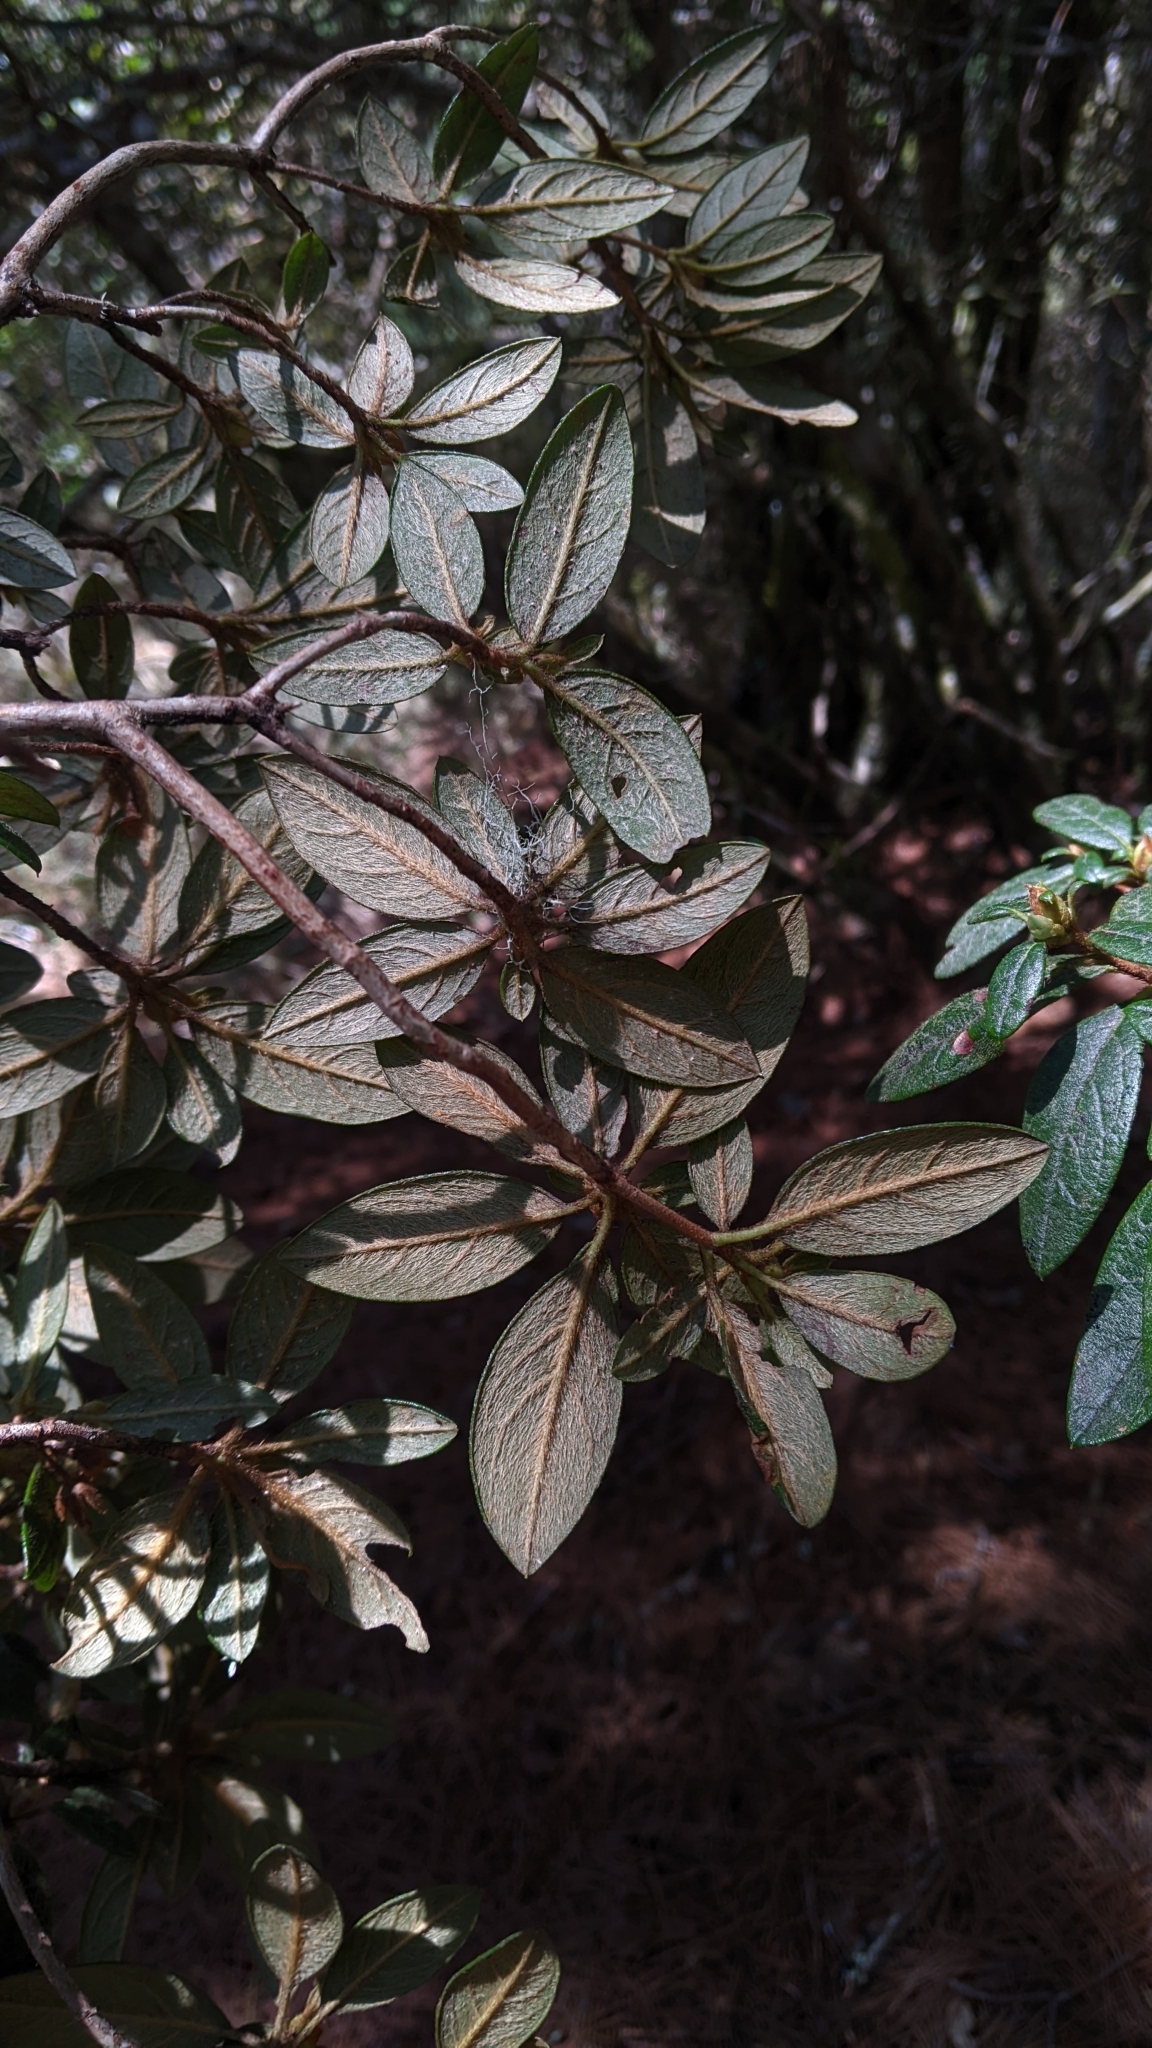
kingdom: Plantae
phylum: Tracheophyta
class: Magnoliopsida
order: Ericales
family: Ericaceae
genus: Rhododendron
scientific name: Rhododendron rubropilosum
